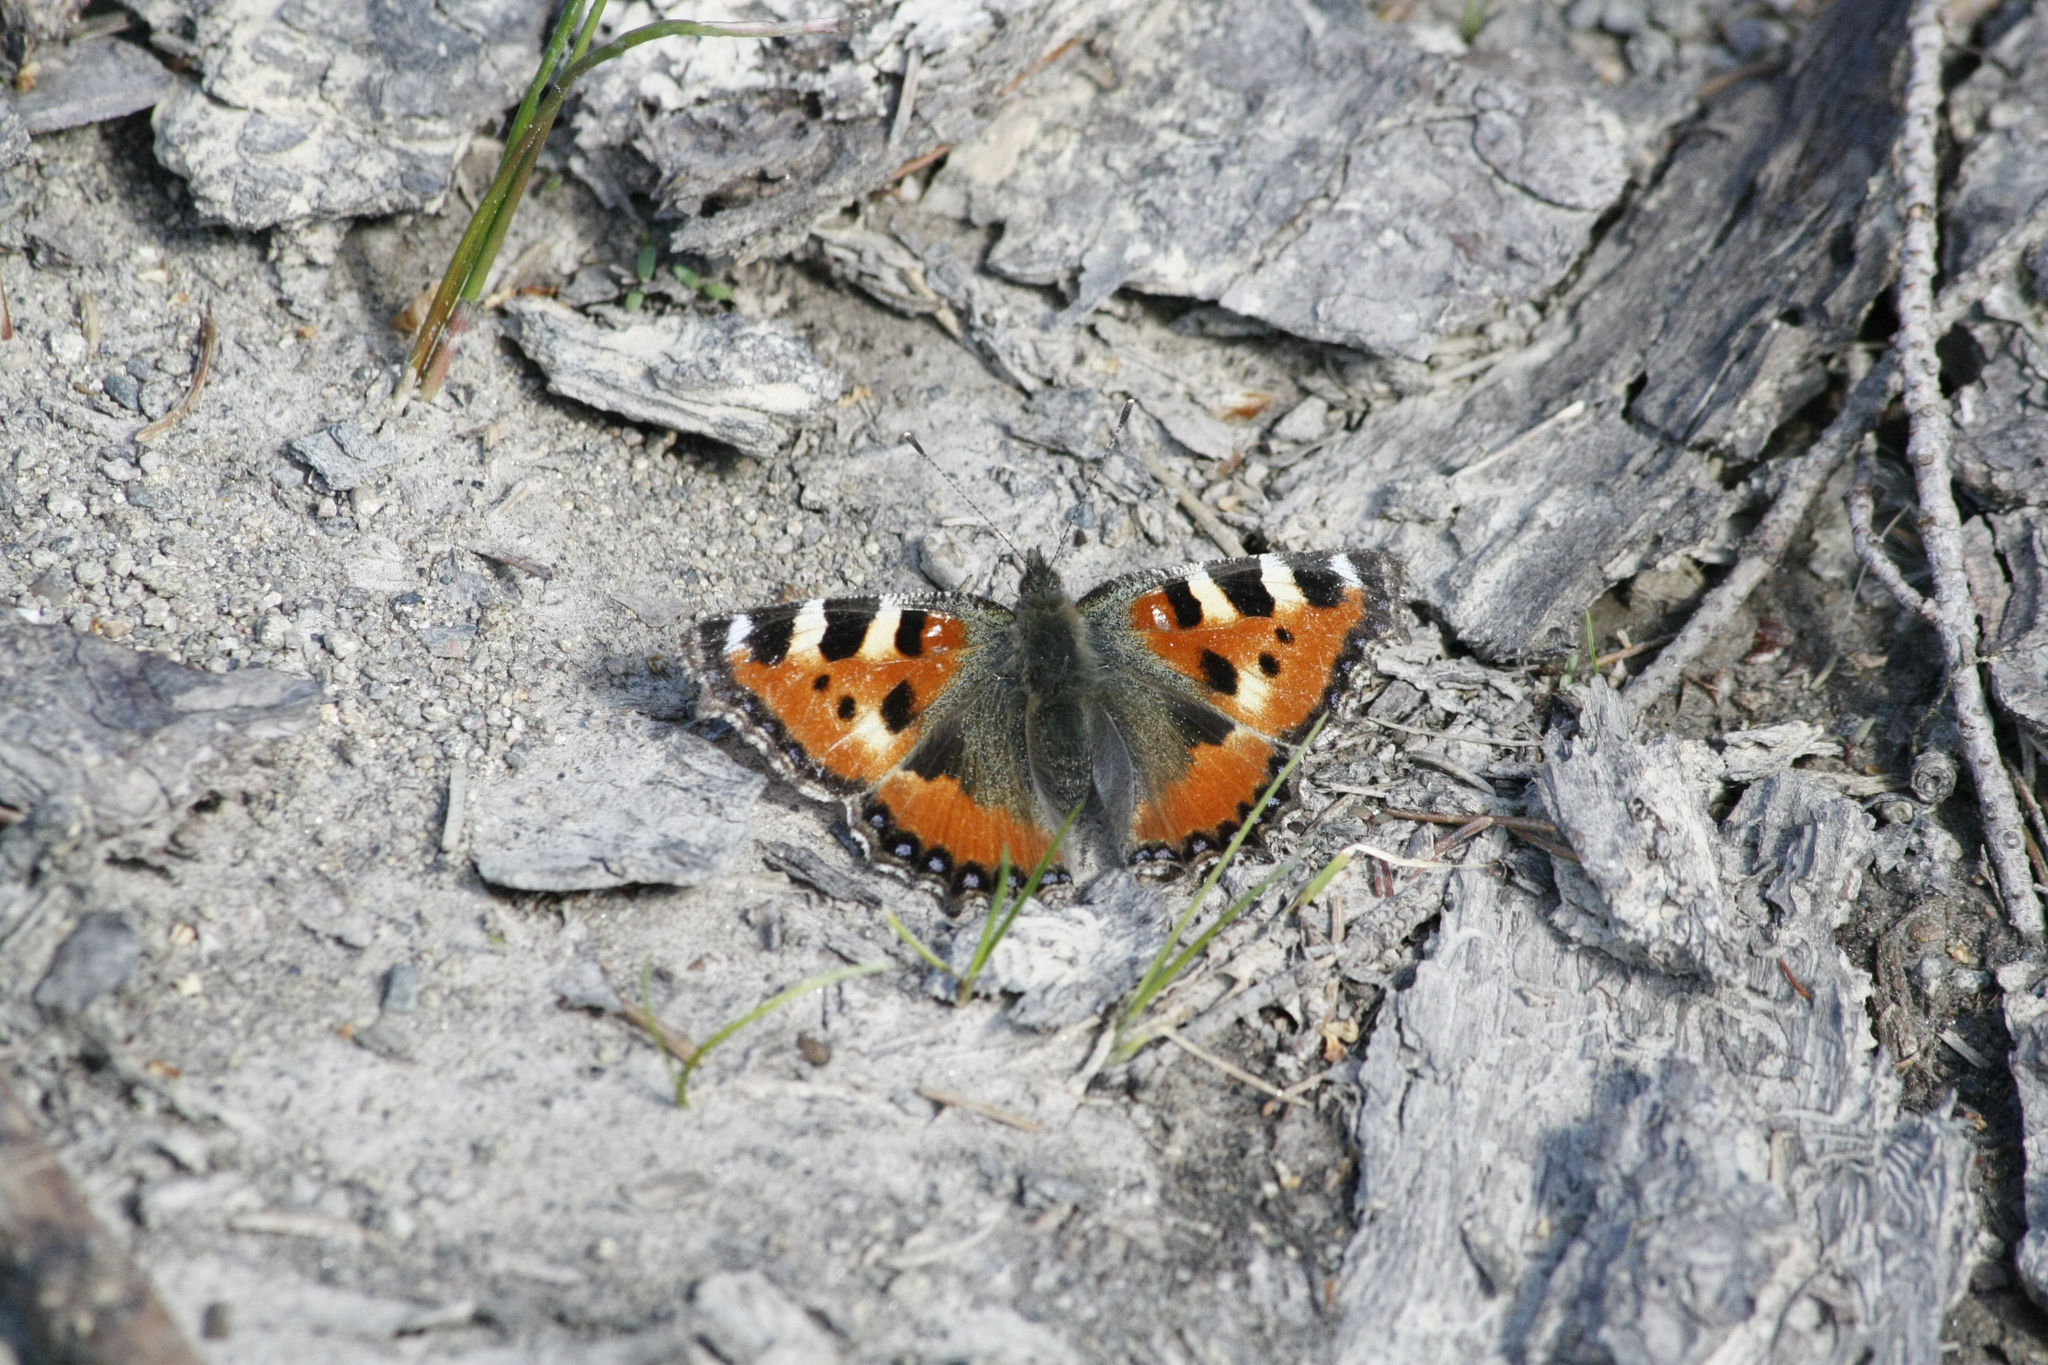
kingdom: Animalia
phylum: Arthropoda
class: Insecta
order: Lepidoptera
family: Nymphalidae
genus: Aglais
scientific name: Aglais urticae
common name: Small tortoiseshell
